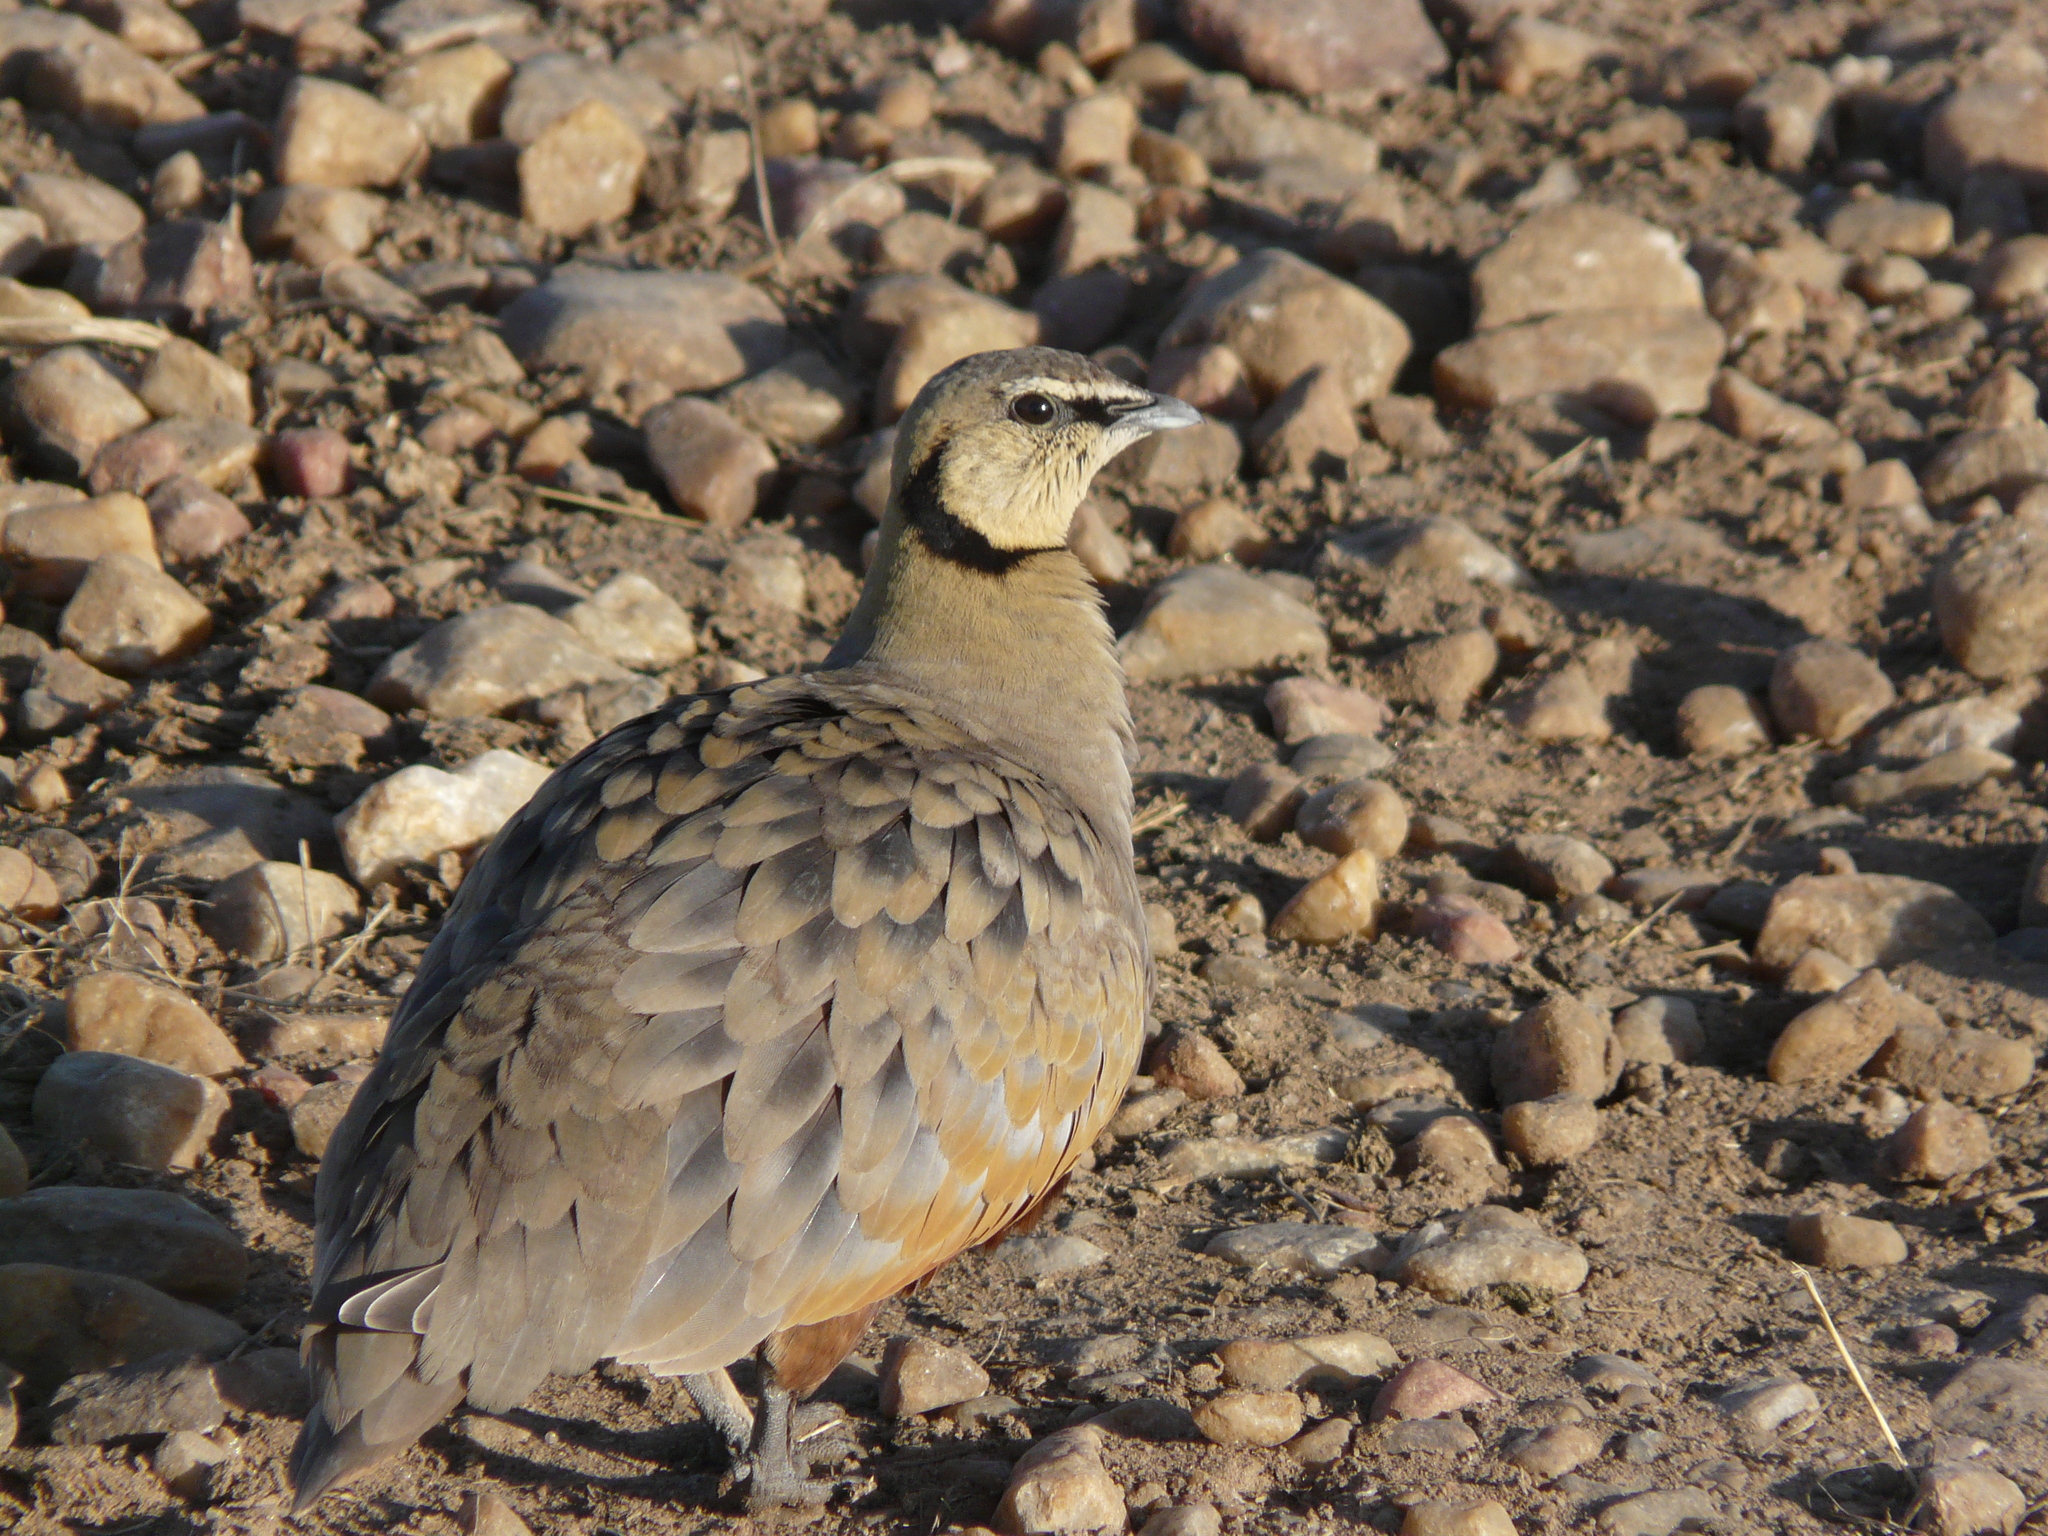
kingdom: Animalia
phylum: Chordata
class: Aves
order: Pteroclidiformes
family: Pteroclididae
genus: Pterocles
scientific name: Pterocles gutturalis
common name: Yellow-throated sandgrouse
